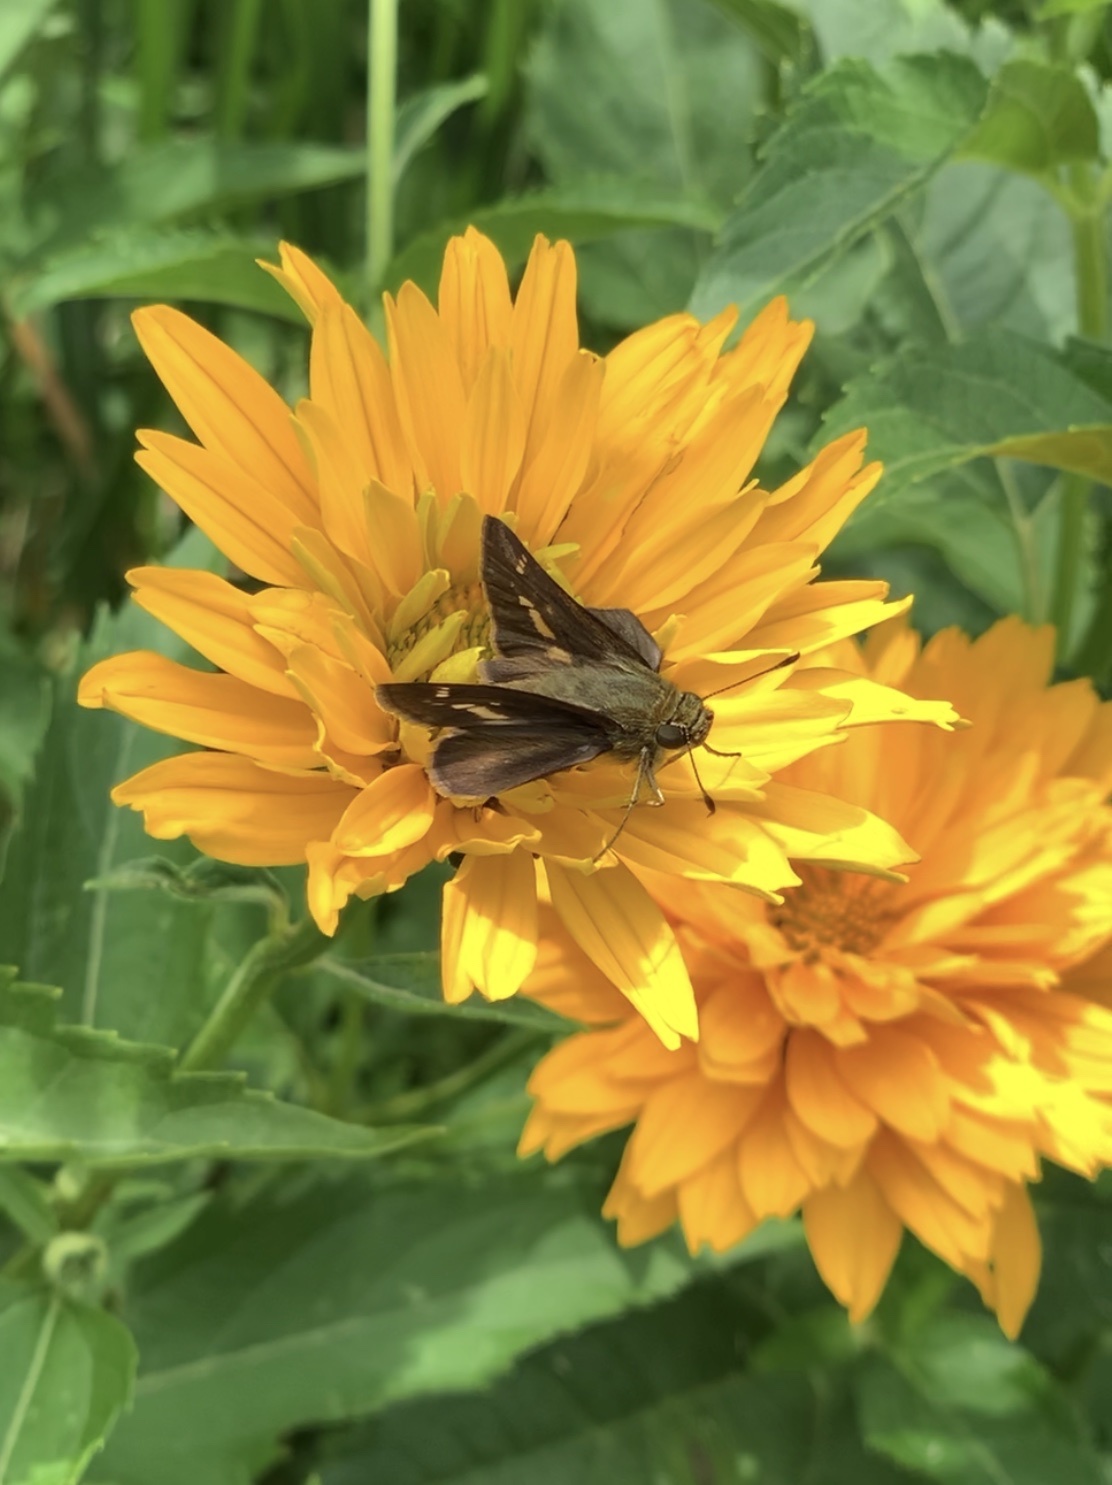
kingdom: Animalia
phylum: Arthropoda
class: Insecta
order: Lepidoptera
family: Hesperiidae
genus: Vernia
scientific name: Vernia verna
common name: Little glassywing
